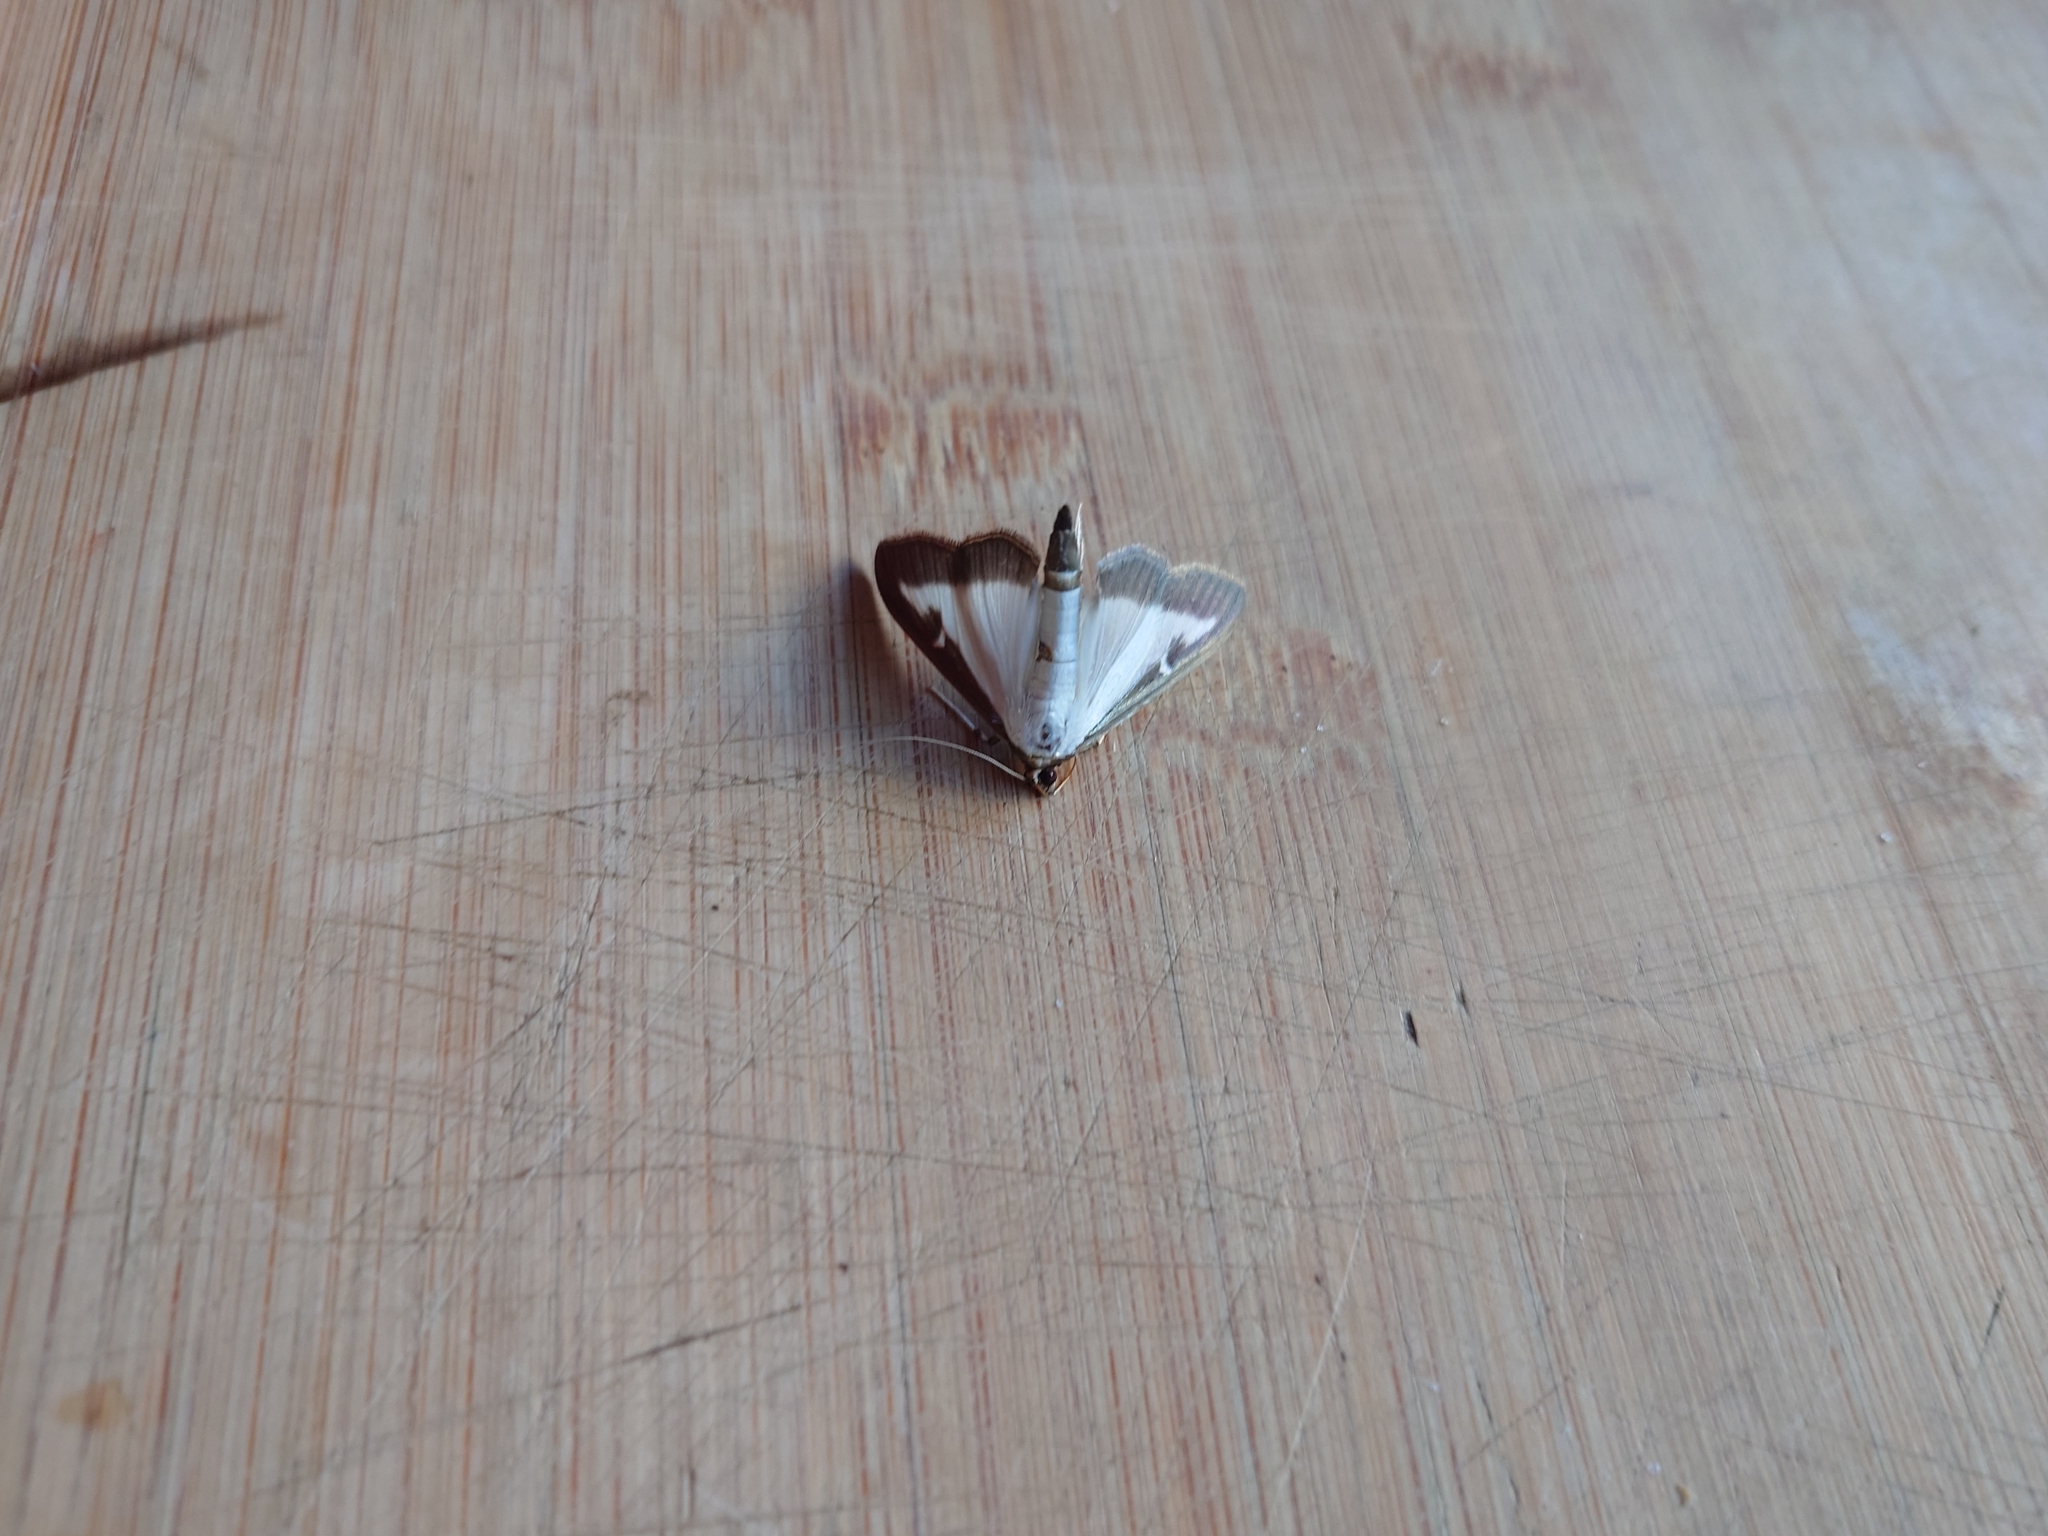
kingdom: Animalia
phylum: Arthropoda
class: Insecta
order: Lepidoptera
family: Crambidae
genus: Cydalima
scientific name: Cydalima perspectalis
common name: Box tree moth
